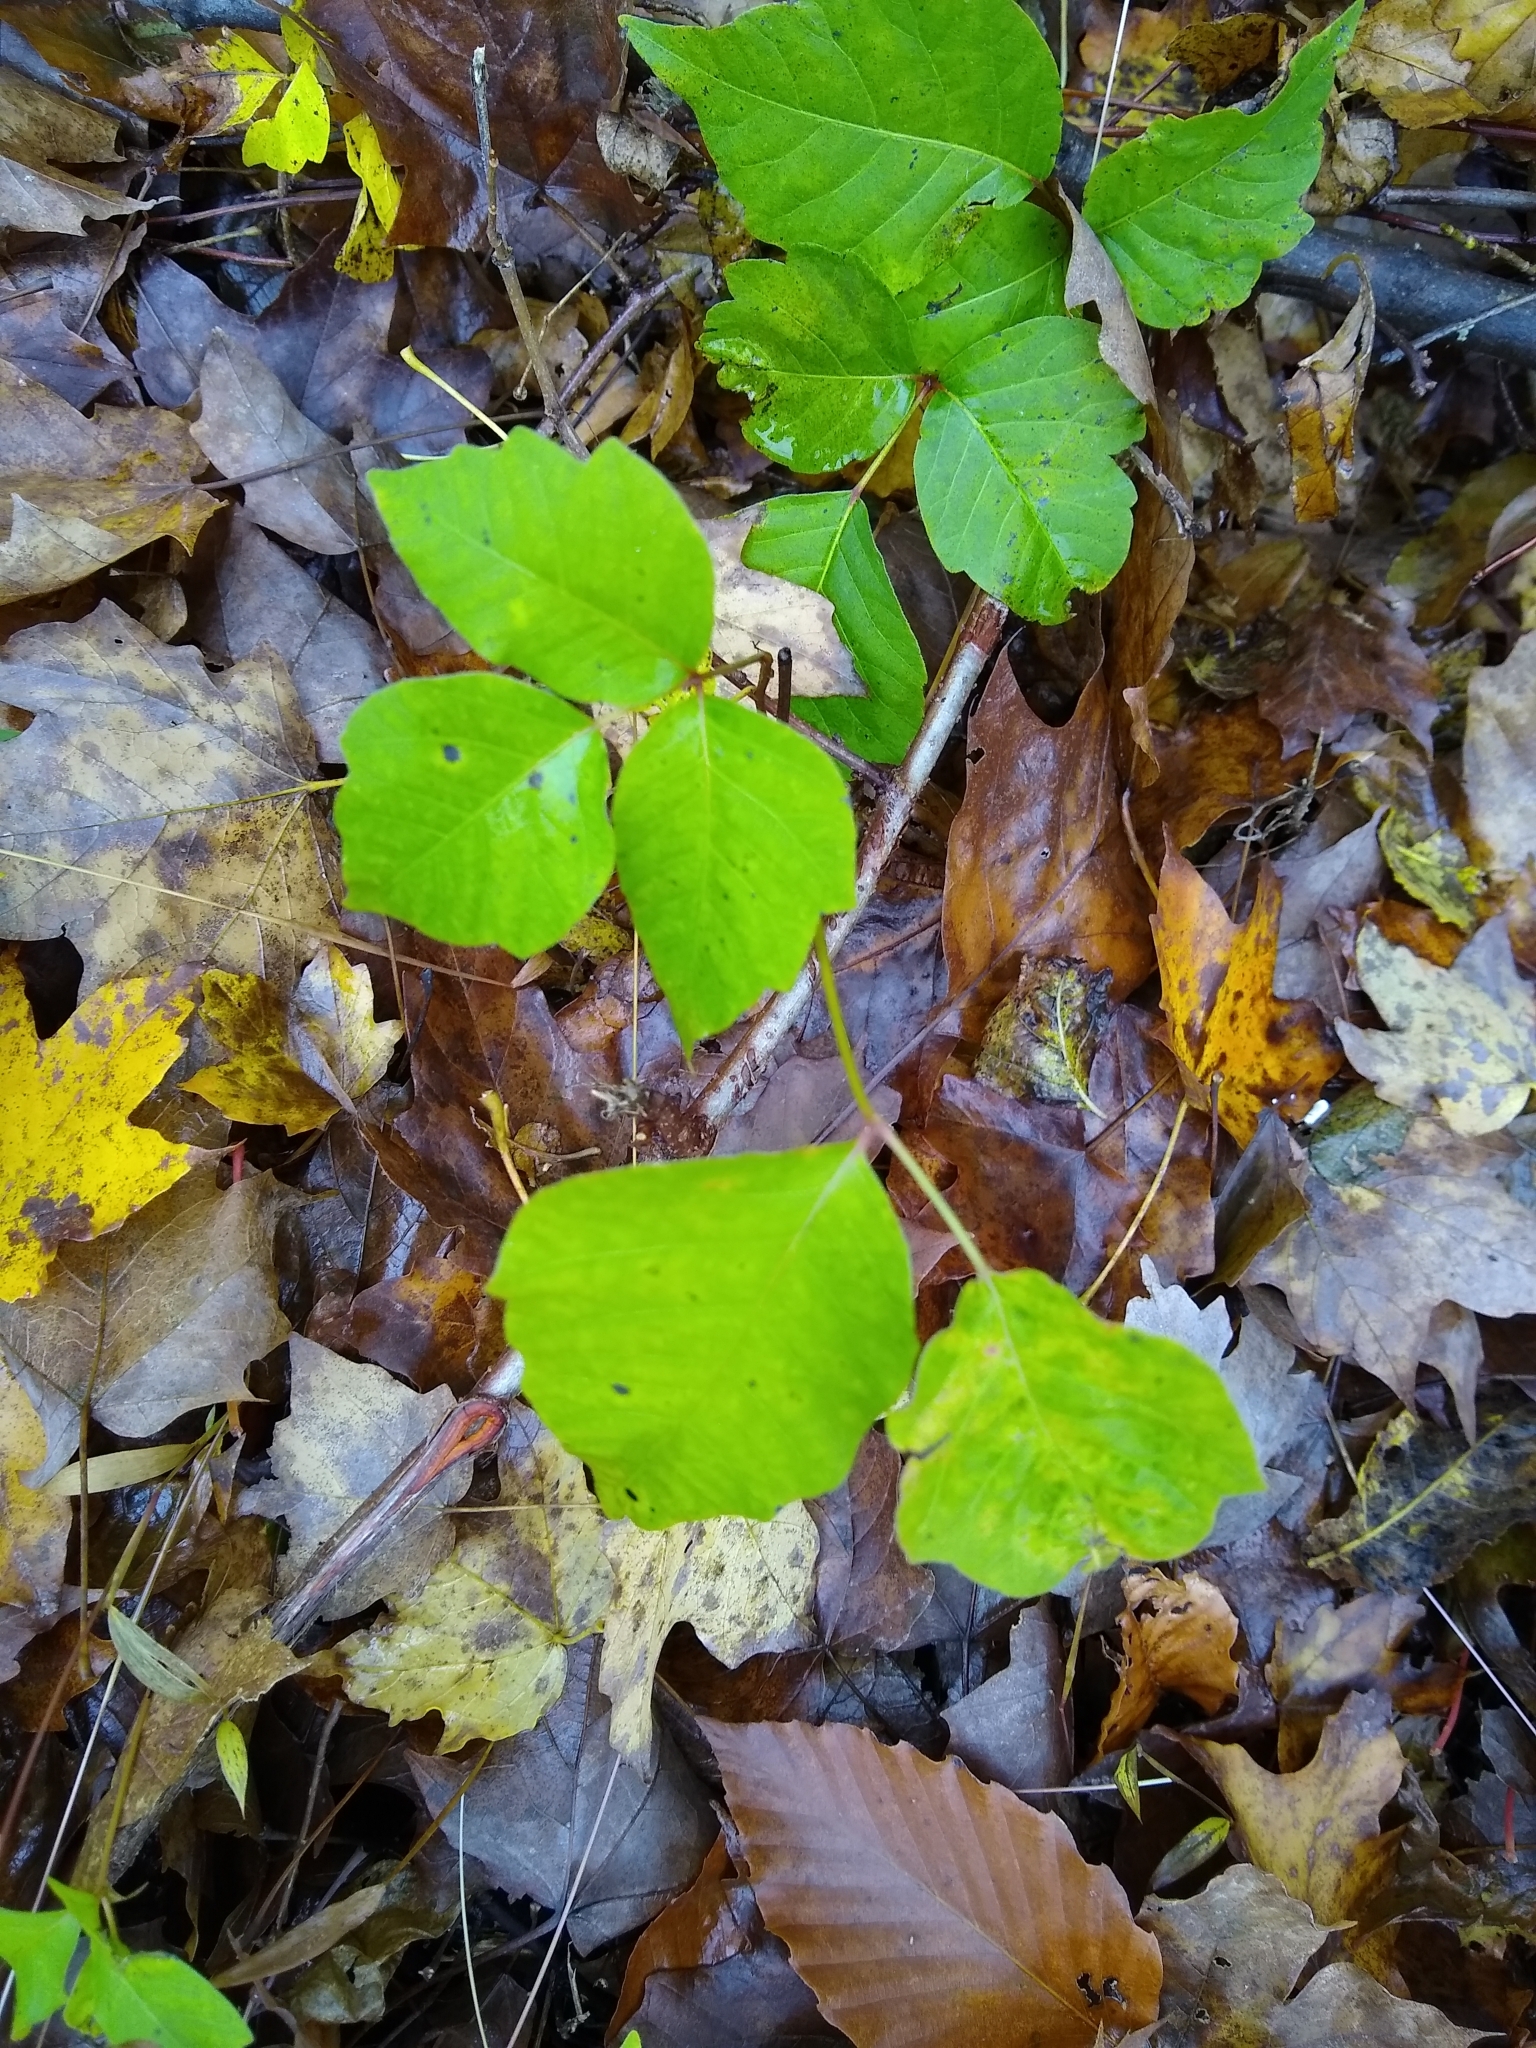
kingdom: Plantae
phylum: Tracheophyta
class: Magnoliopsida
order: Sapindales
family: Anacardiaceae
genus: Toxicodendron
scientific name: Toxicodendron radicans
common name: Poison ivy
